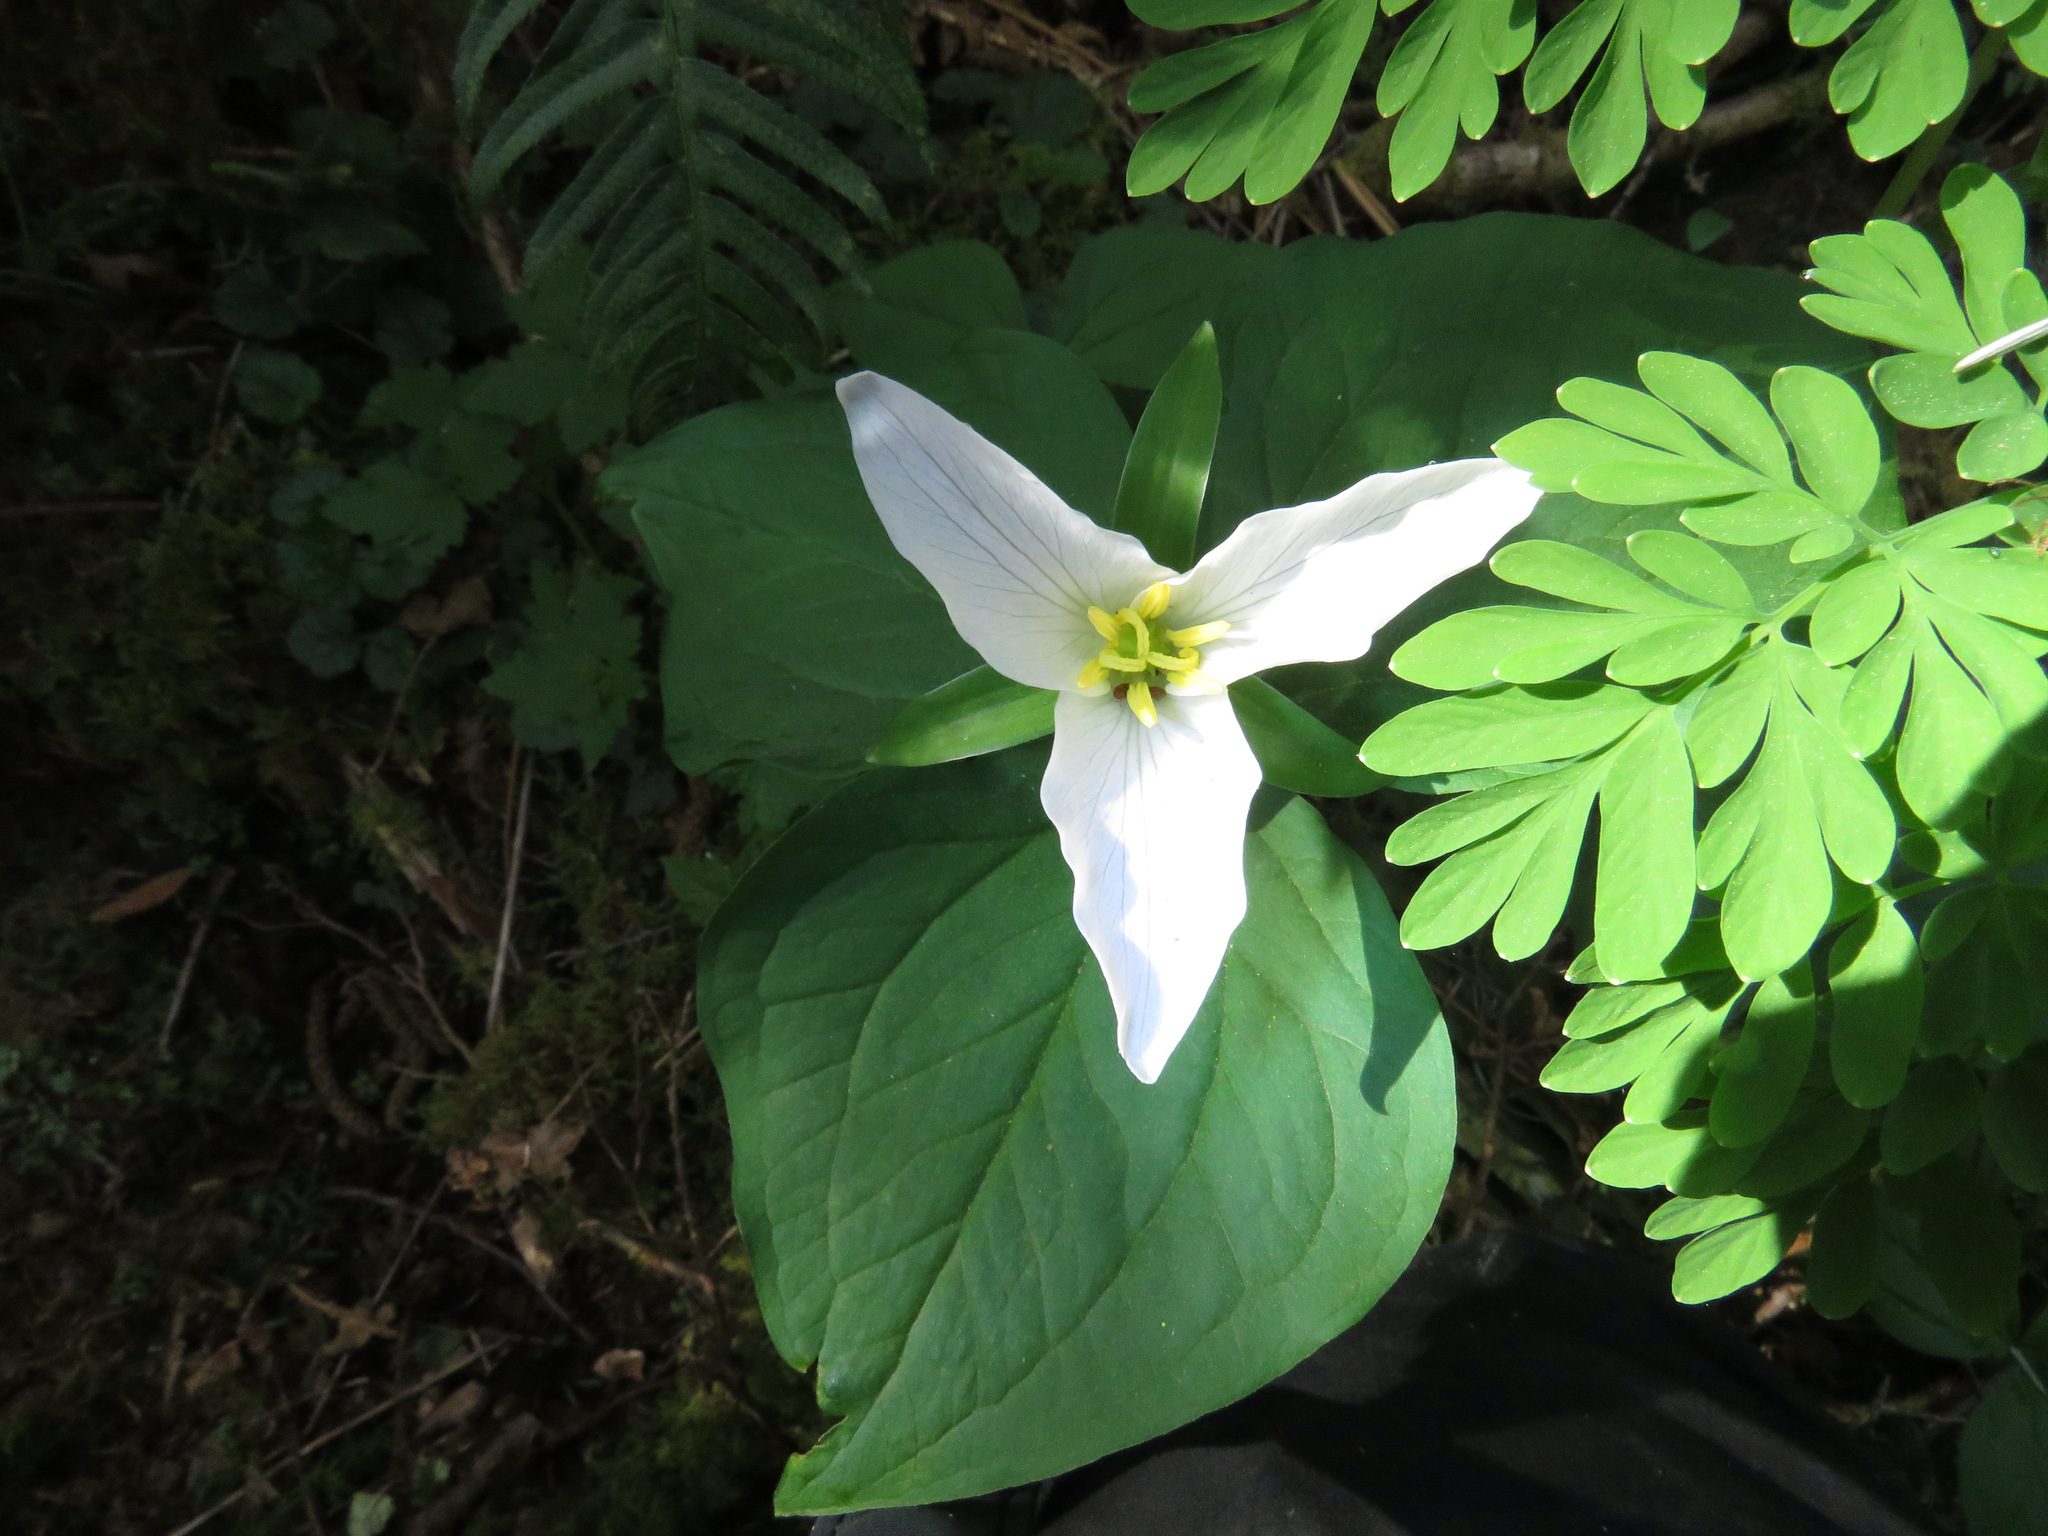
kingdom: Plantae
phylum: Tracheophyta
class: Liliopsida
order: Liliales
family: Melanthiaceae
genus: Trillium
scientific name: Trillium ovatum
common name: Pacific trillium
